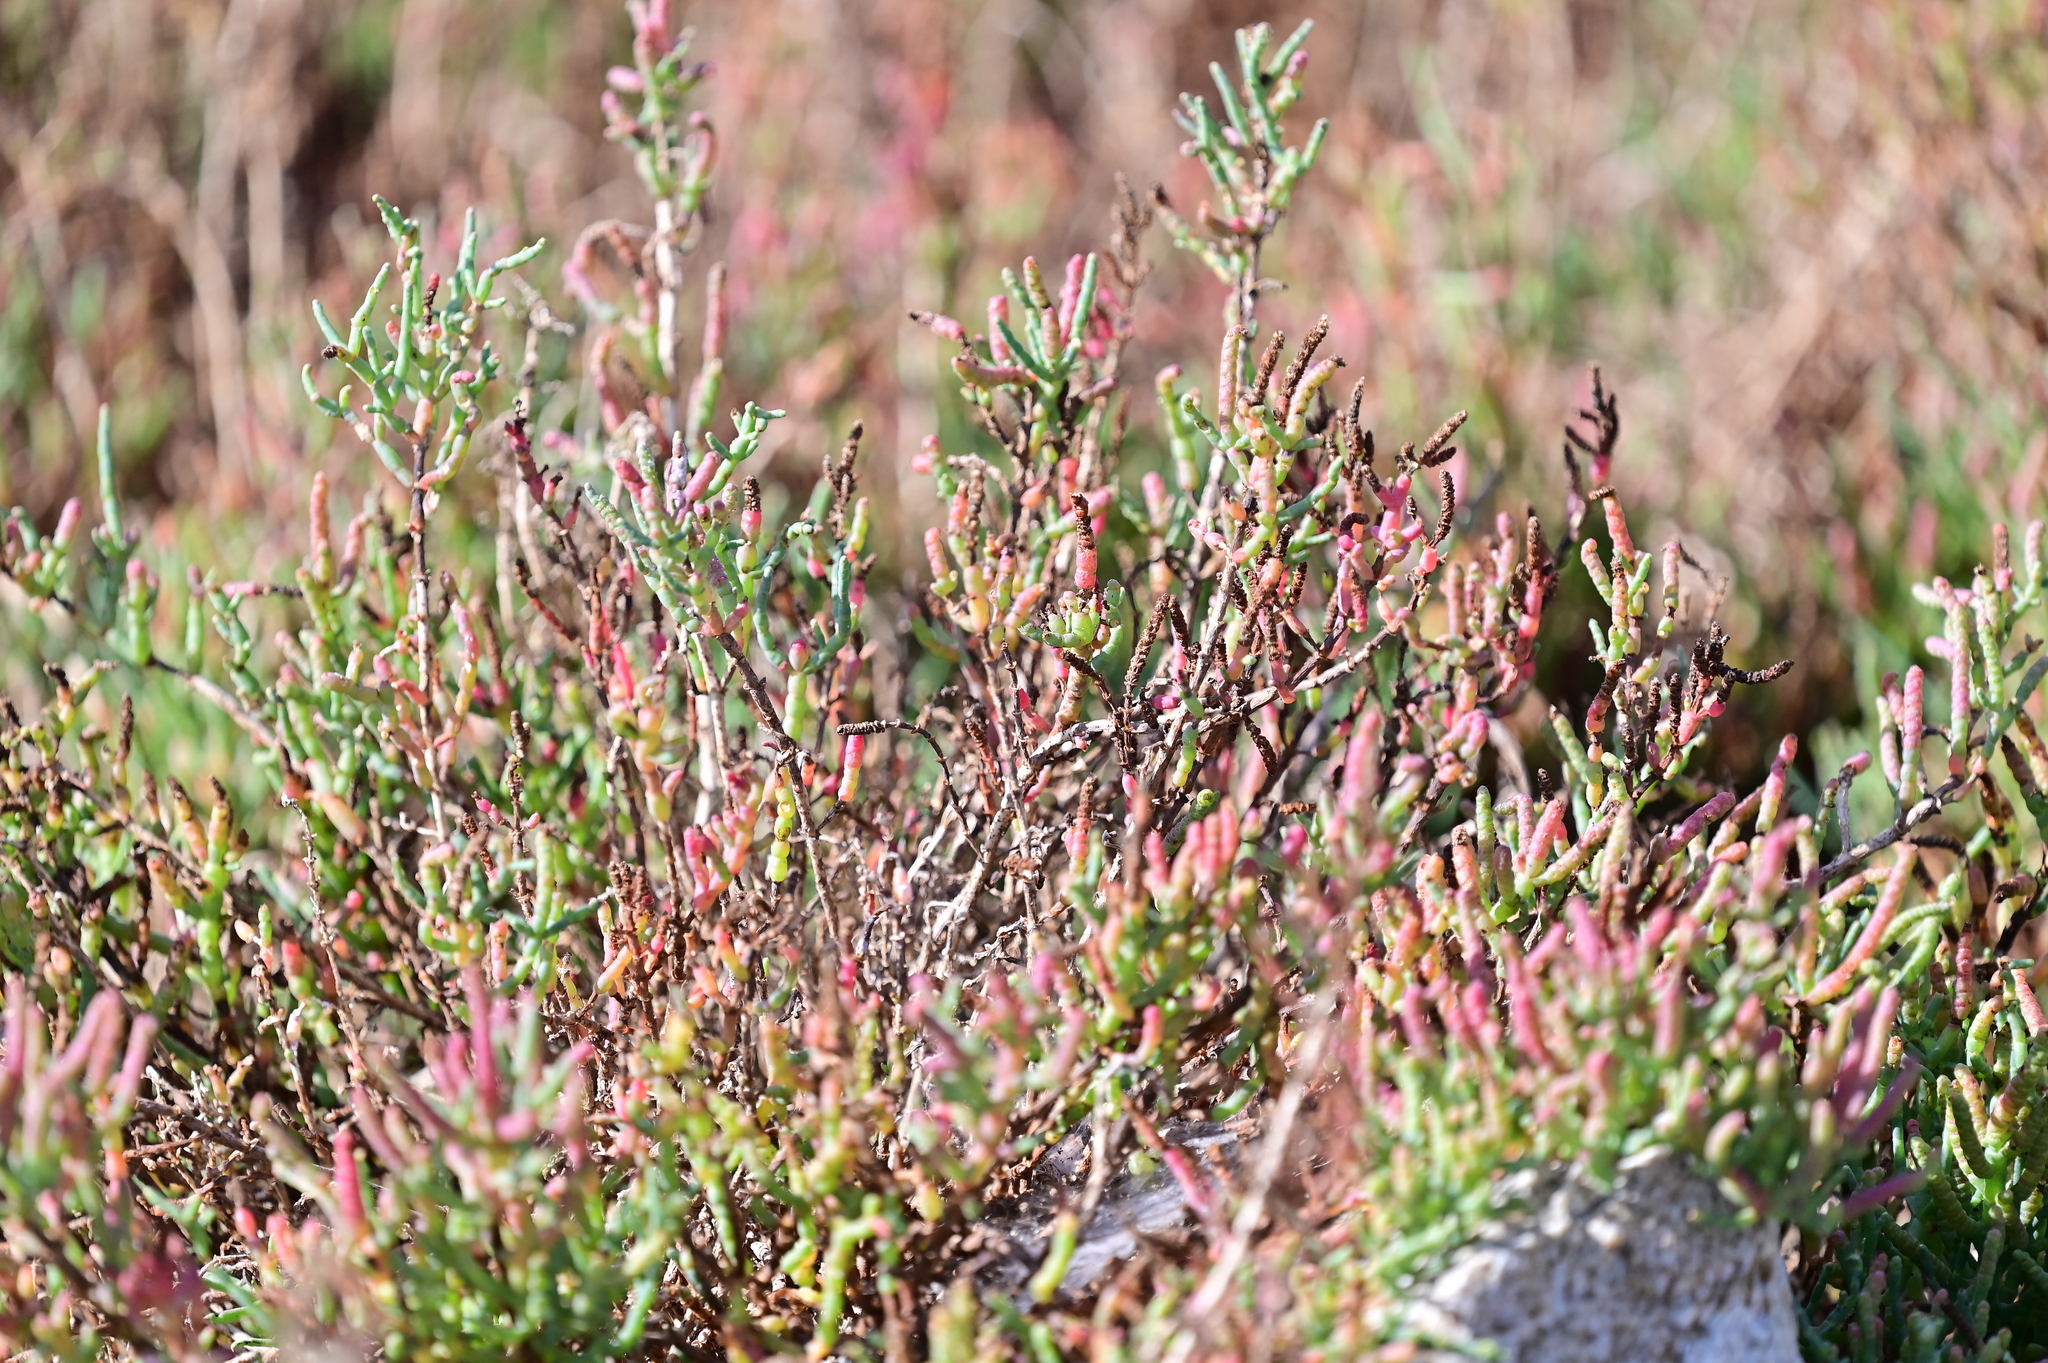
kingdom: Plantae
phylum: Tracheophyta
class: Magnoliopsida
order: Caryophyllales
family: Amaranthaceae
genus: Salicornia
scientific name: Salicornia pacifica
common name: Pacific glasswort
